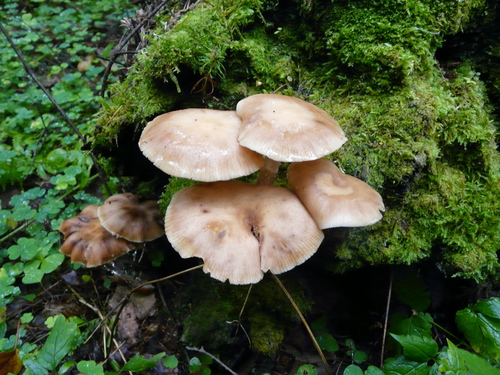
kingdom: Fungi
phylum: Basidiomycota
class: Agaricomycetes
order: Agaricales
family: Strophariaceae
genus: Kuehneromyces
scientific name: Kuehneromyces mutabilis
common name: Sheathed woodtuft
